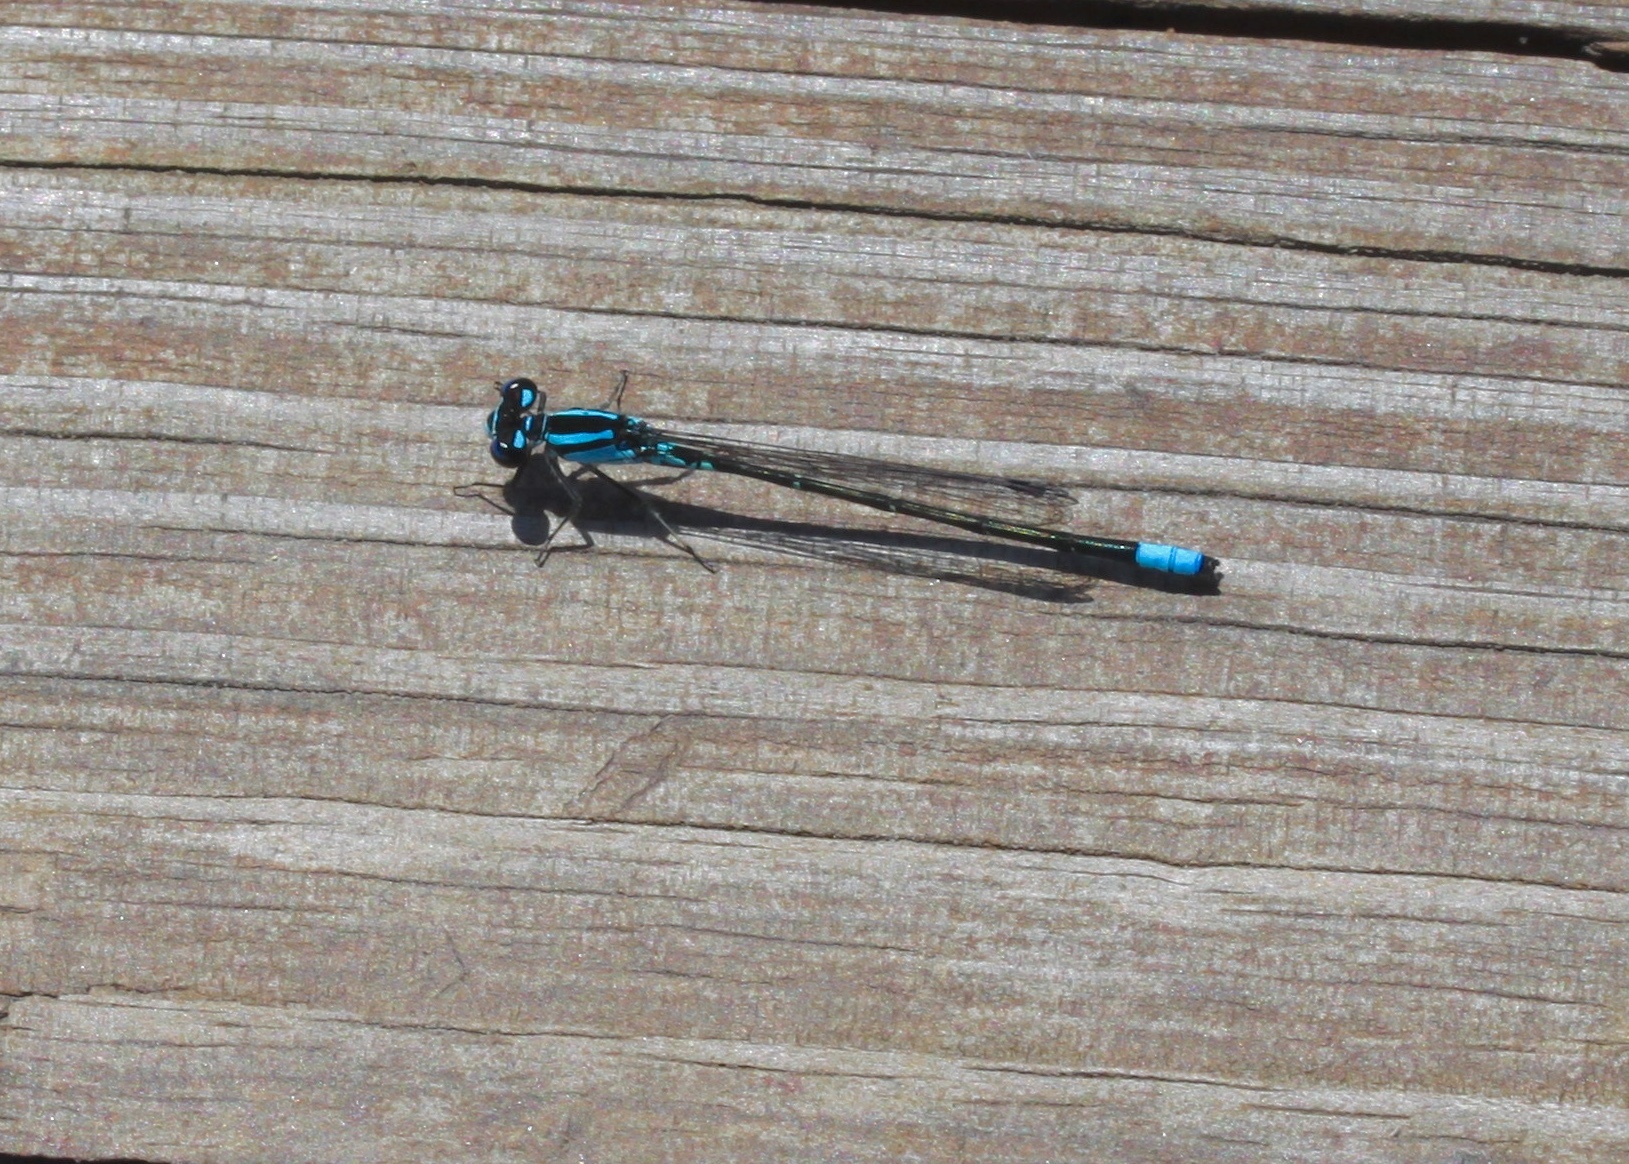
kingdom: Animalia
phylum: Arthropoda
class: Insecta
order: Odonata
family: Coenagrionidae
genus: Enallagma
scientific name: Enallagma geminatum
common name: Skimming bluet
